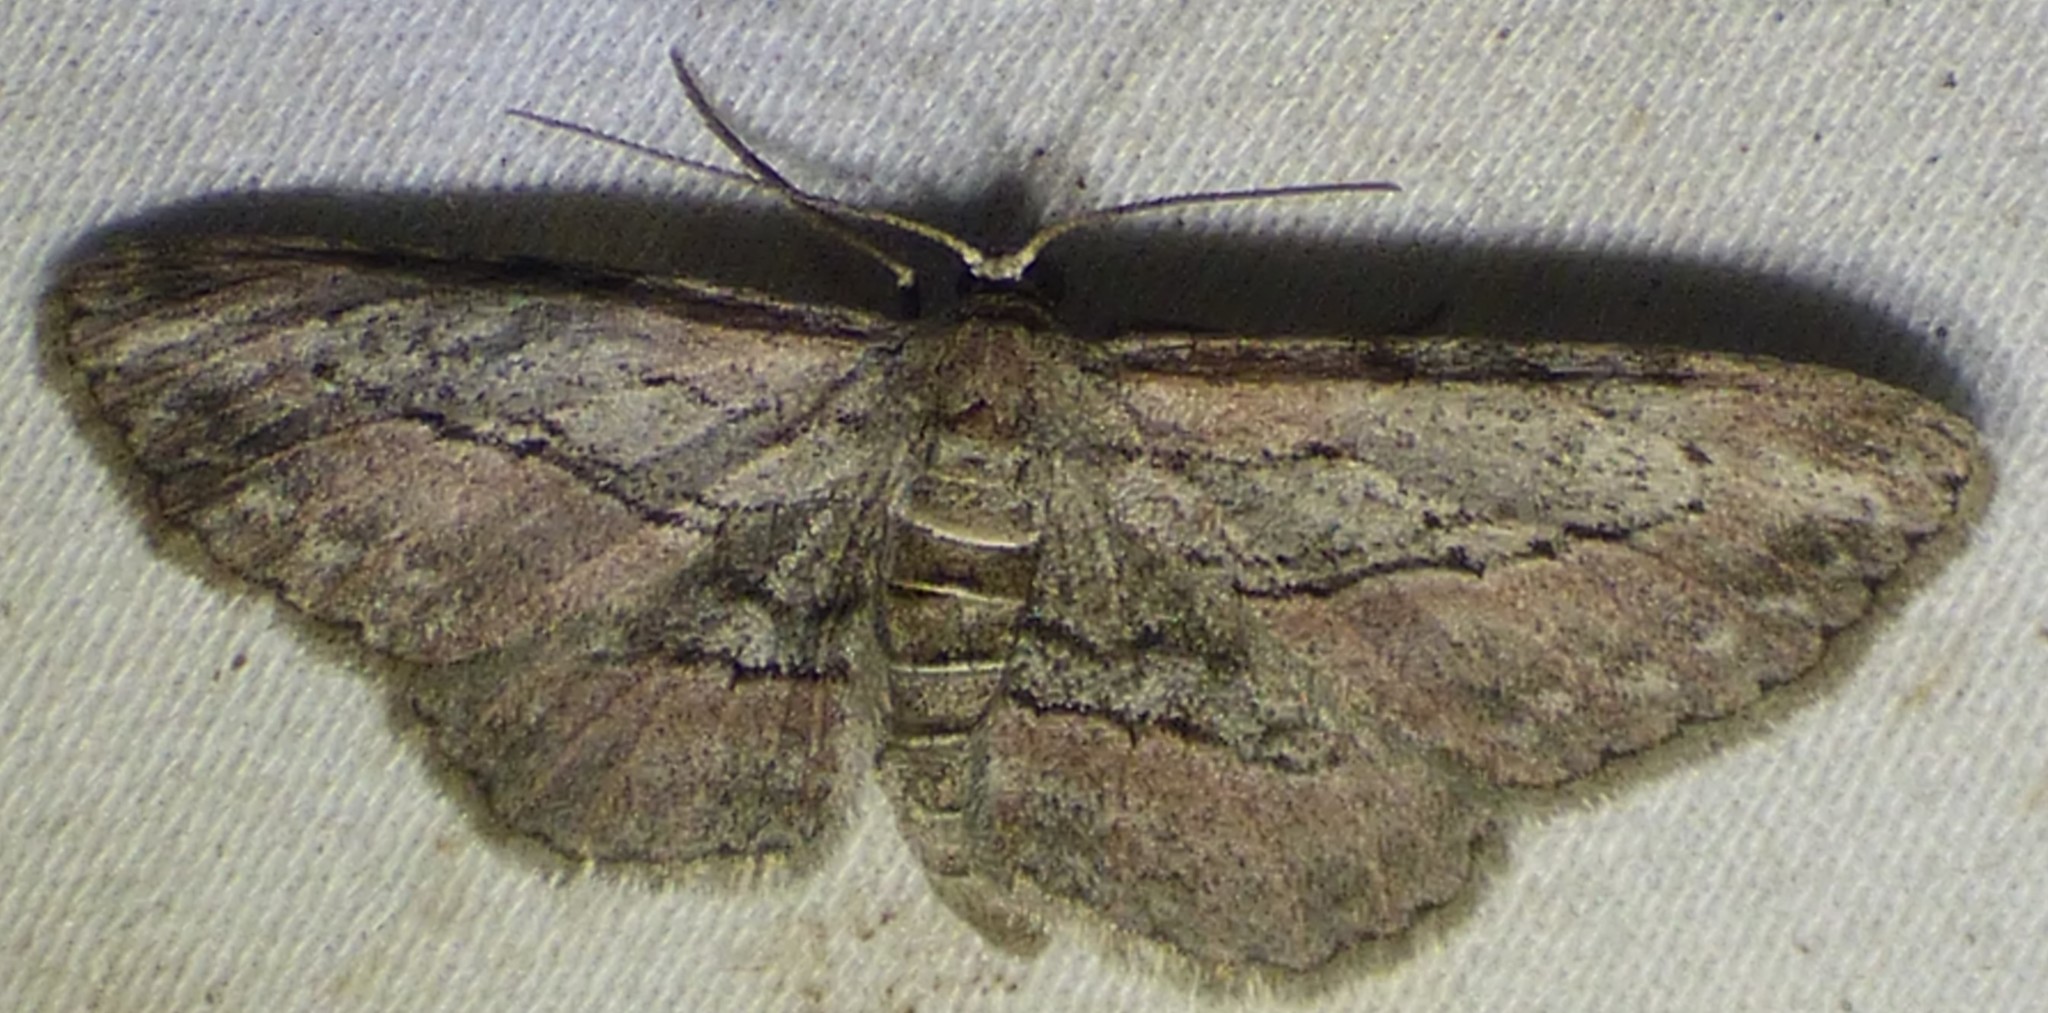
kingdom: Animalia
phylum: Arthropoda
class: Insecta
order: Lepidoptera
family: Geometridae
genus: Glena
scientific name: Glena plumosaria
